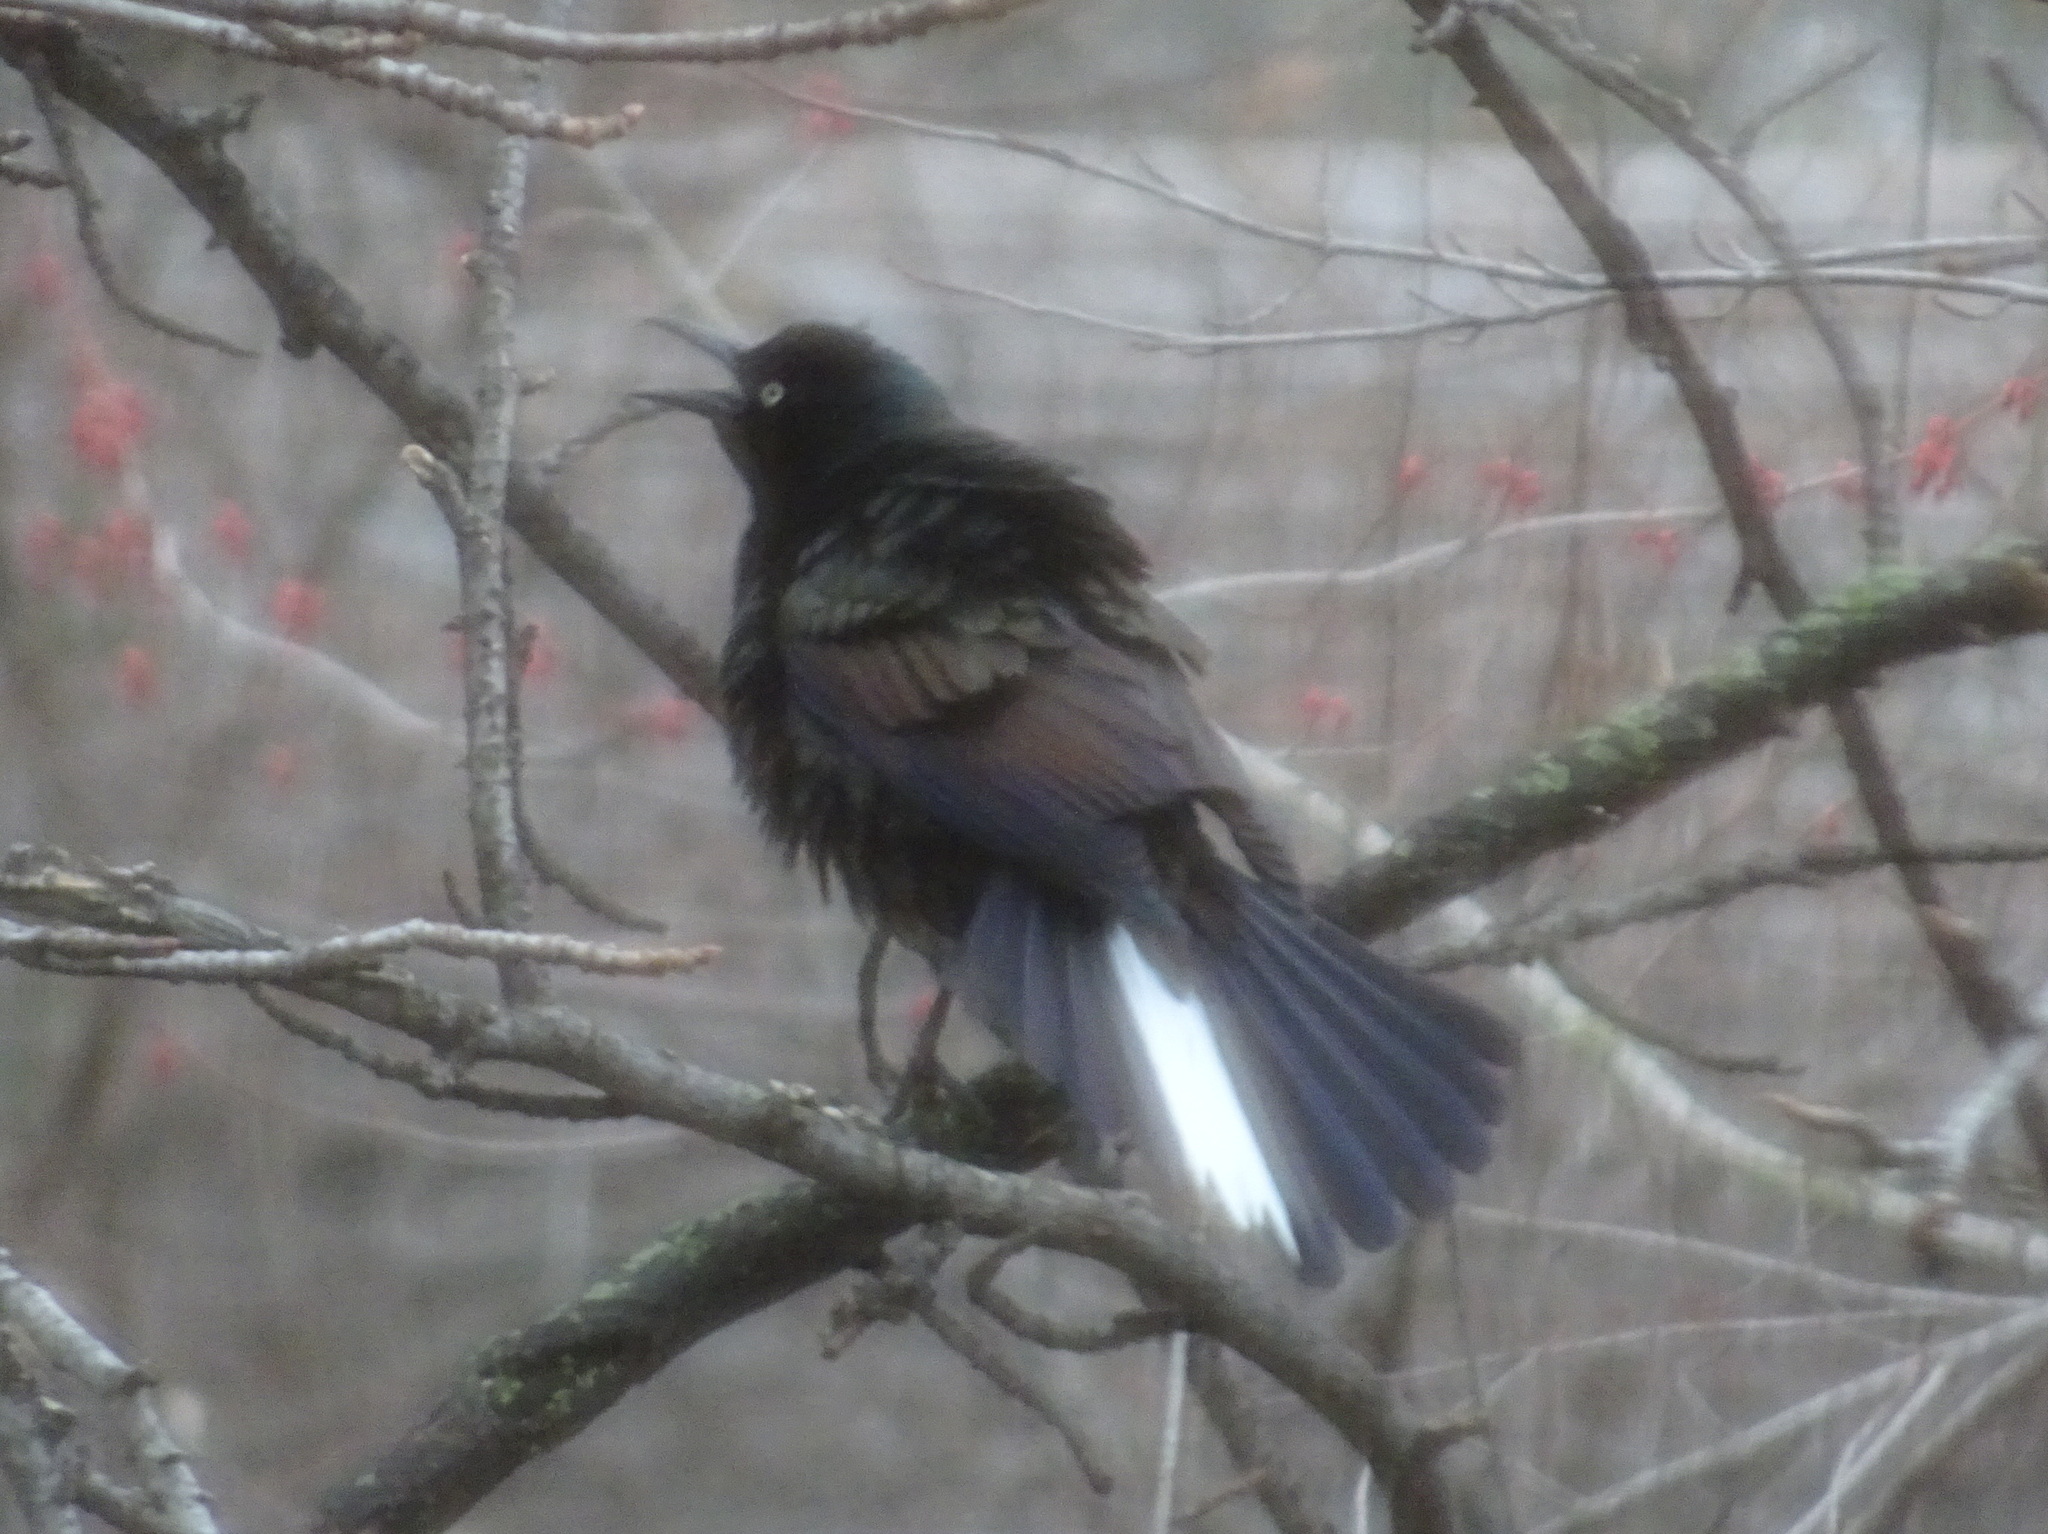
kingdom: Animalia
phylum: Chordata
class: Aves
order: Passeriformes
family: Icteridae
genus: Quiscalus
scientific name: Quiscalus quiscula
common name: Common grackle
